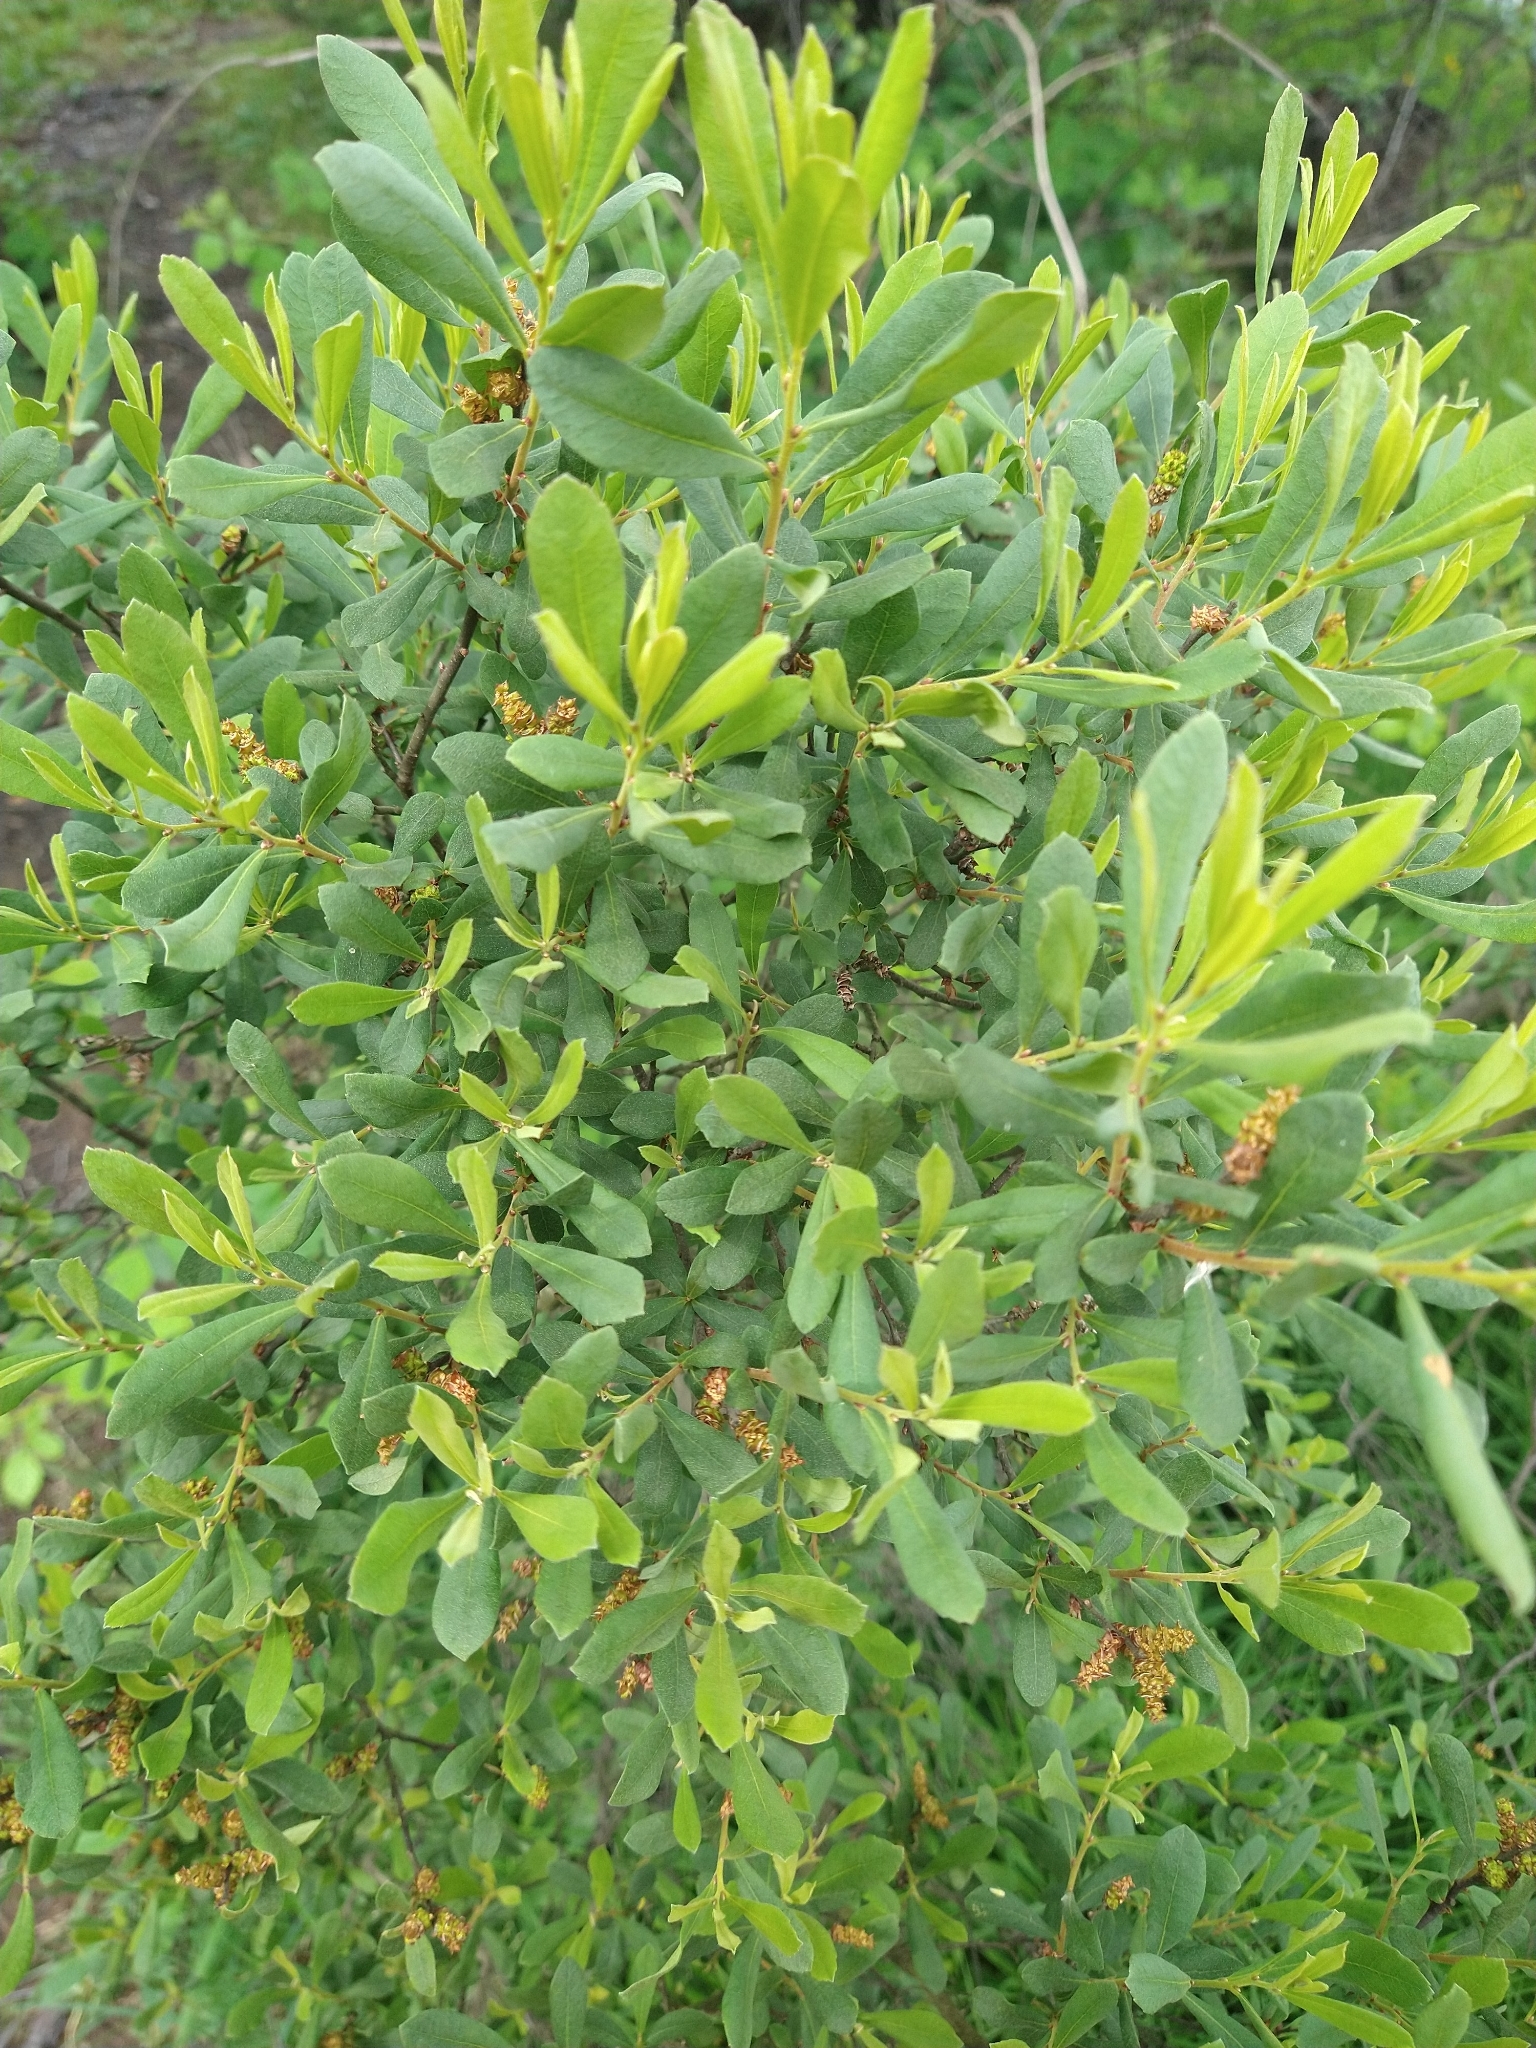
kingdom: Plantae
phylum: Tracheophyta
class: Magnoliopsida
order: Fagales
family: Myricaceae
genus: Myrica
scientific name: Myrica gale
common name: Sweet gale
